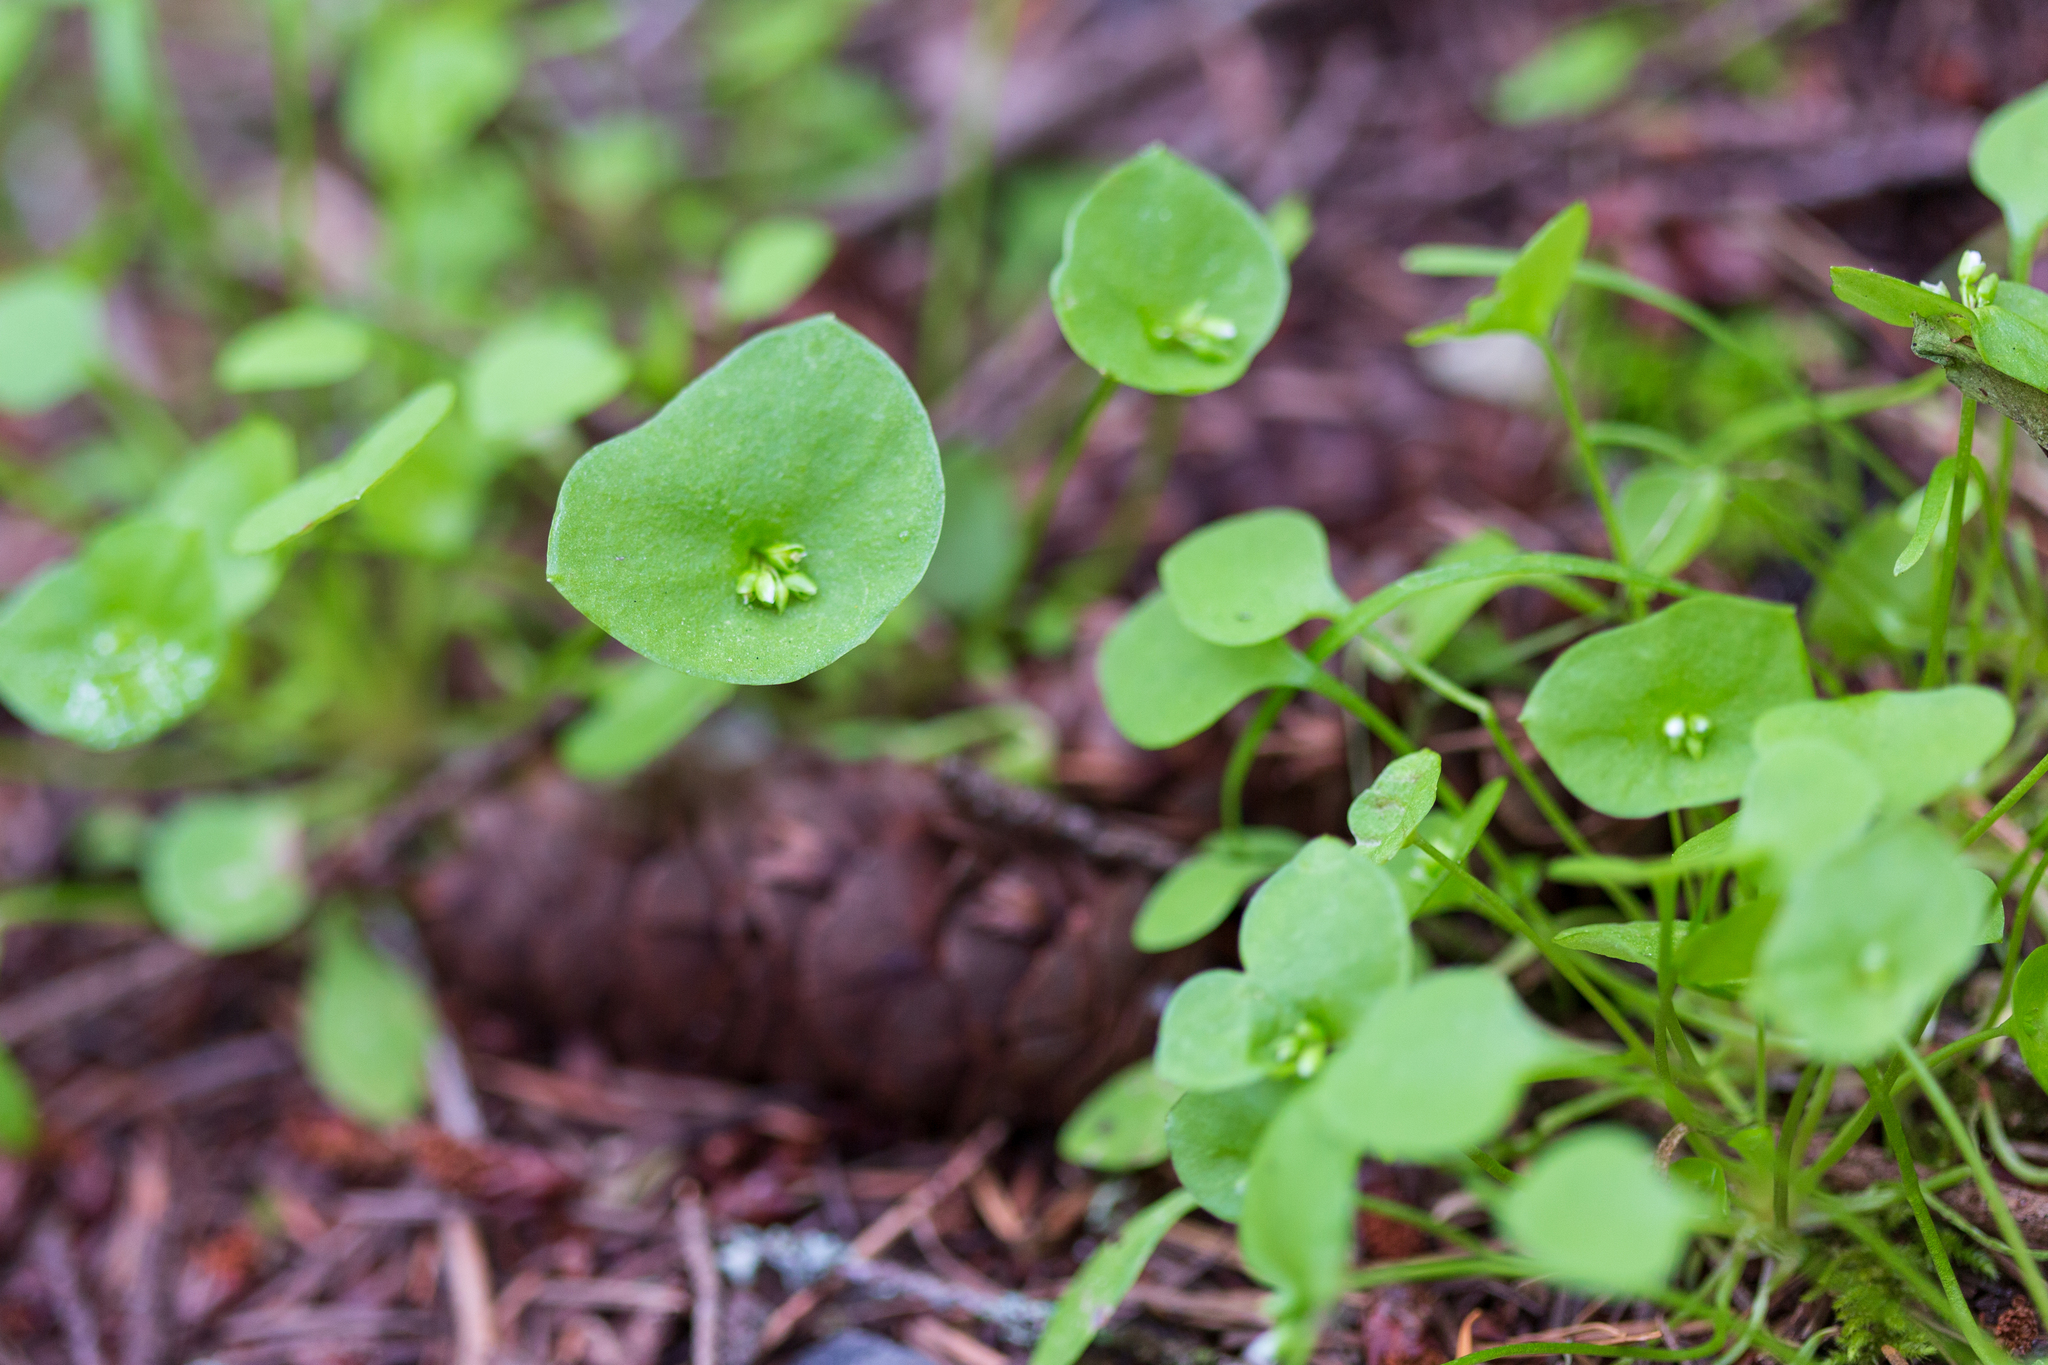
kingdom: Plantae
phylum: Tracheophyta
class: Magnoliopsida
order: Caryophyllales
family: Montiaceae
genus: Claytonia
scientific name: Claytonia perfoliata
